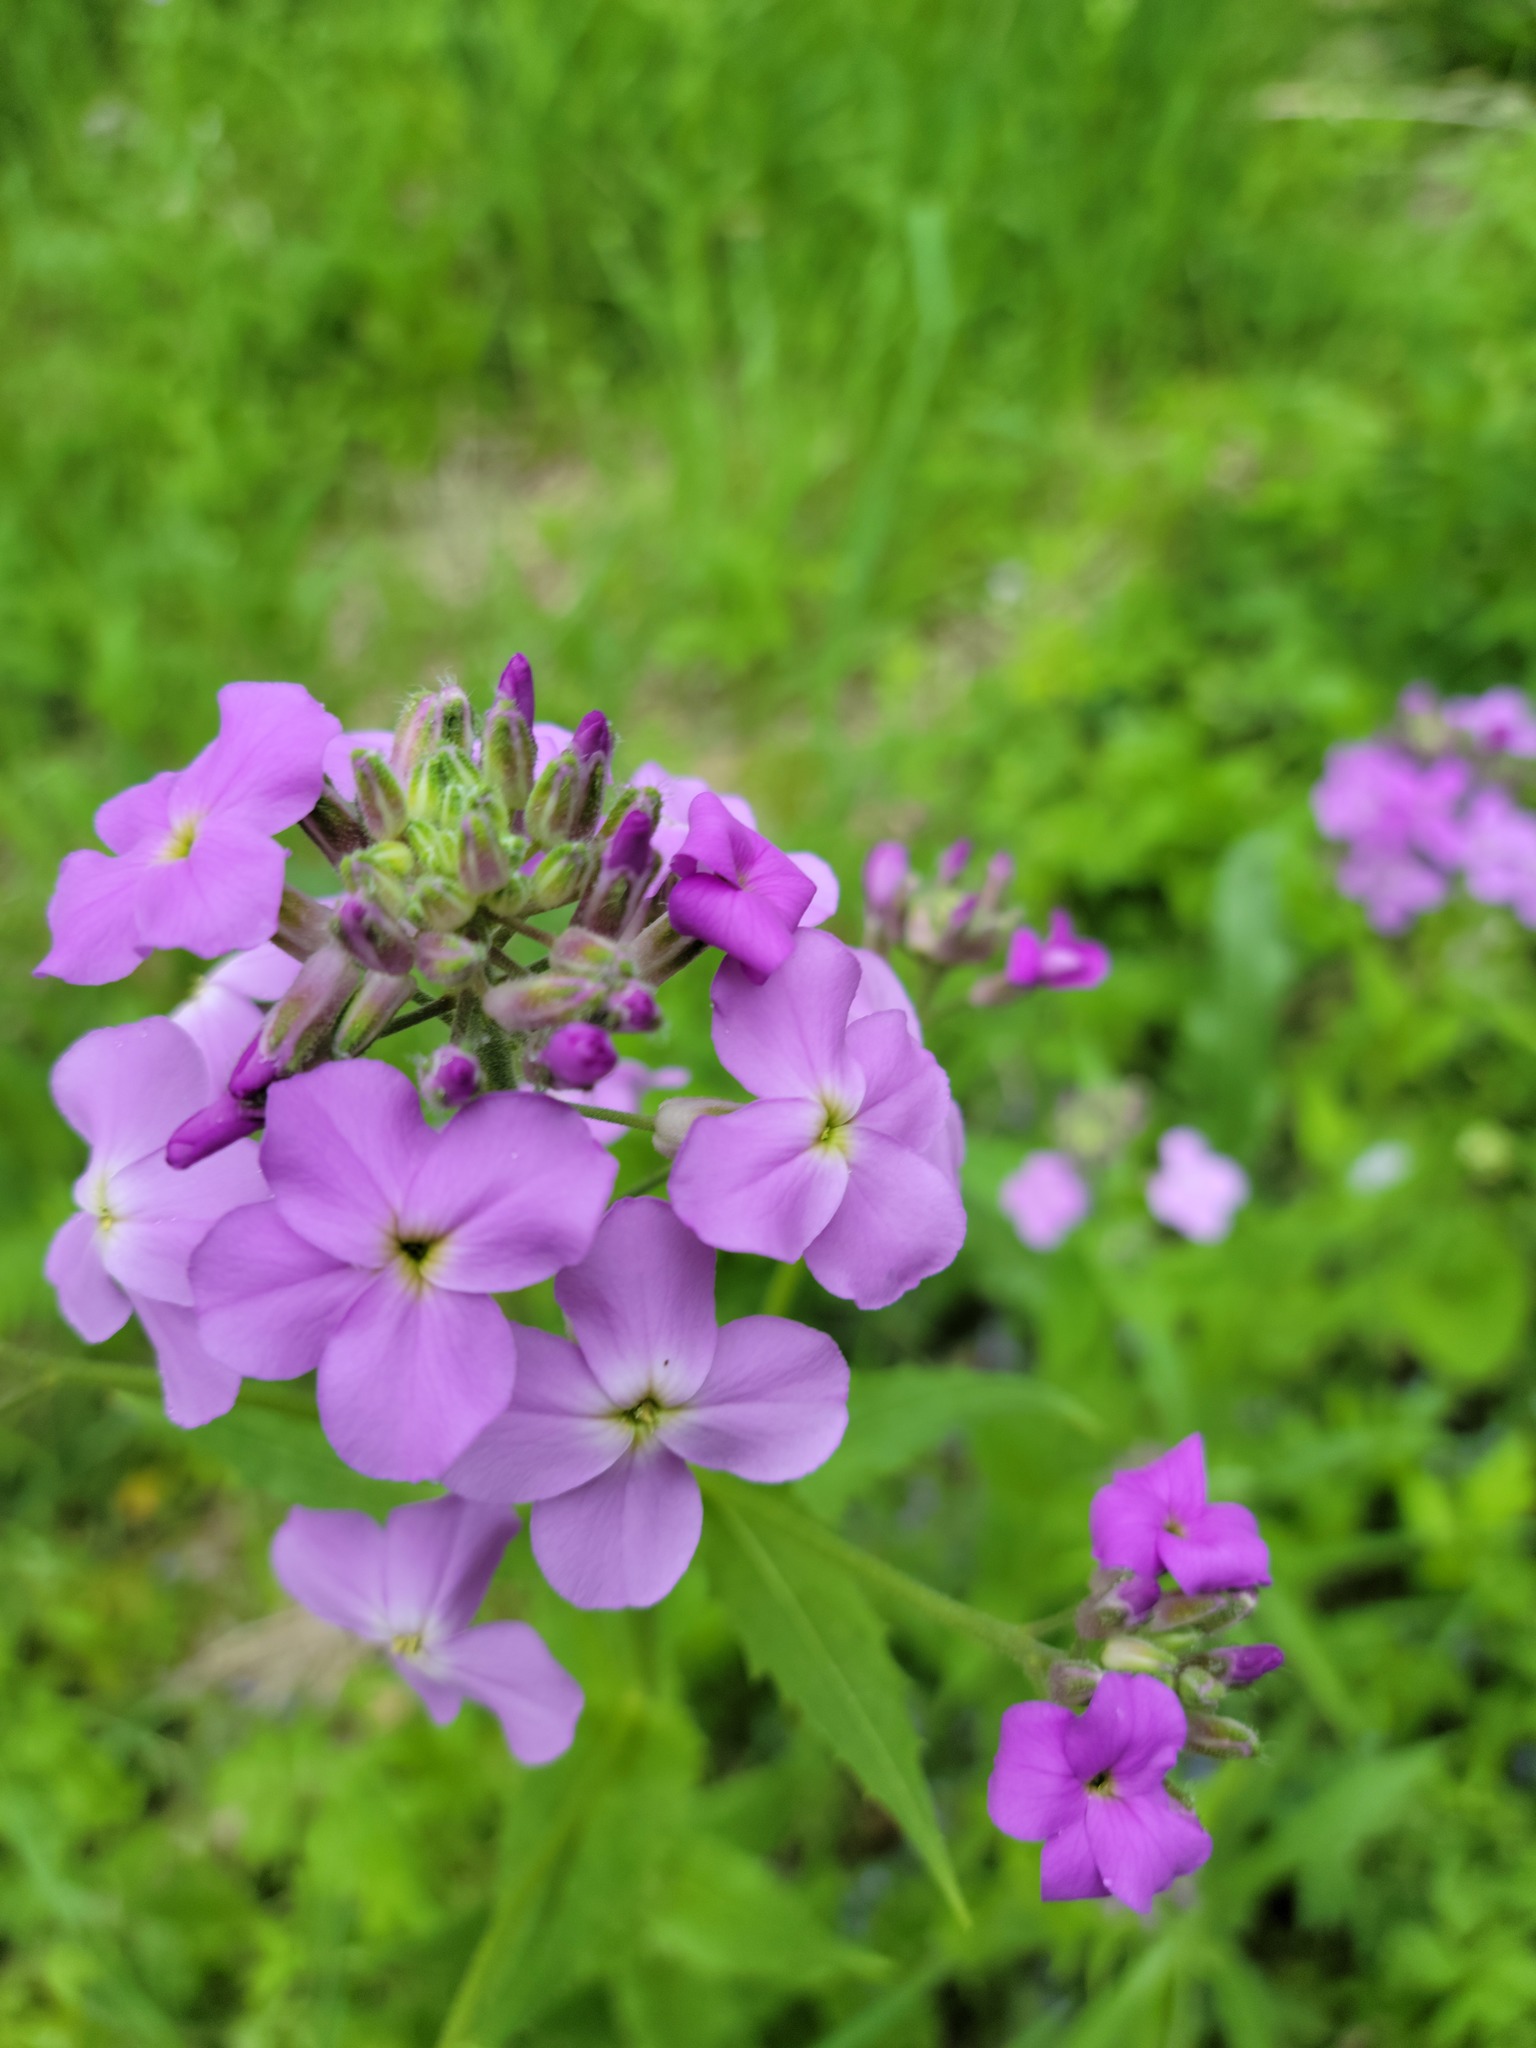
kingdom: Plantae
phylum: Tracheophyta
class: Magnoliopsida
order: Brassicales
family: Brassicaceae
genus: Hesperis
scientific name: Hesperis matronalis
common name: Dame's-violet
